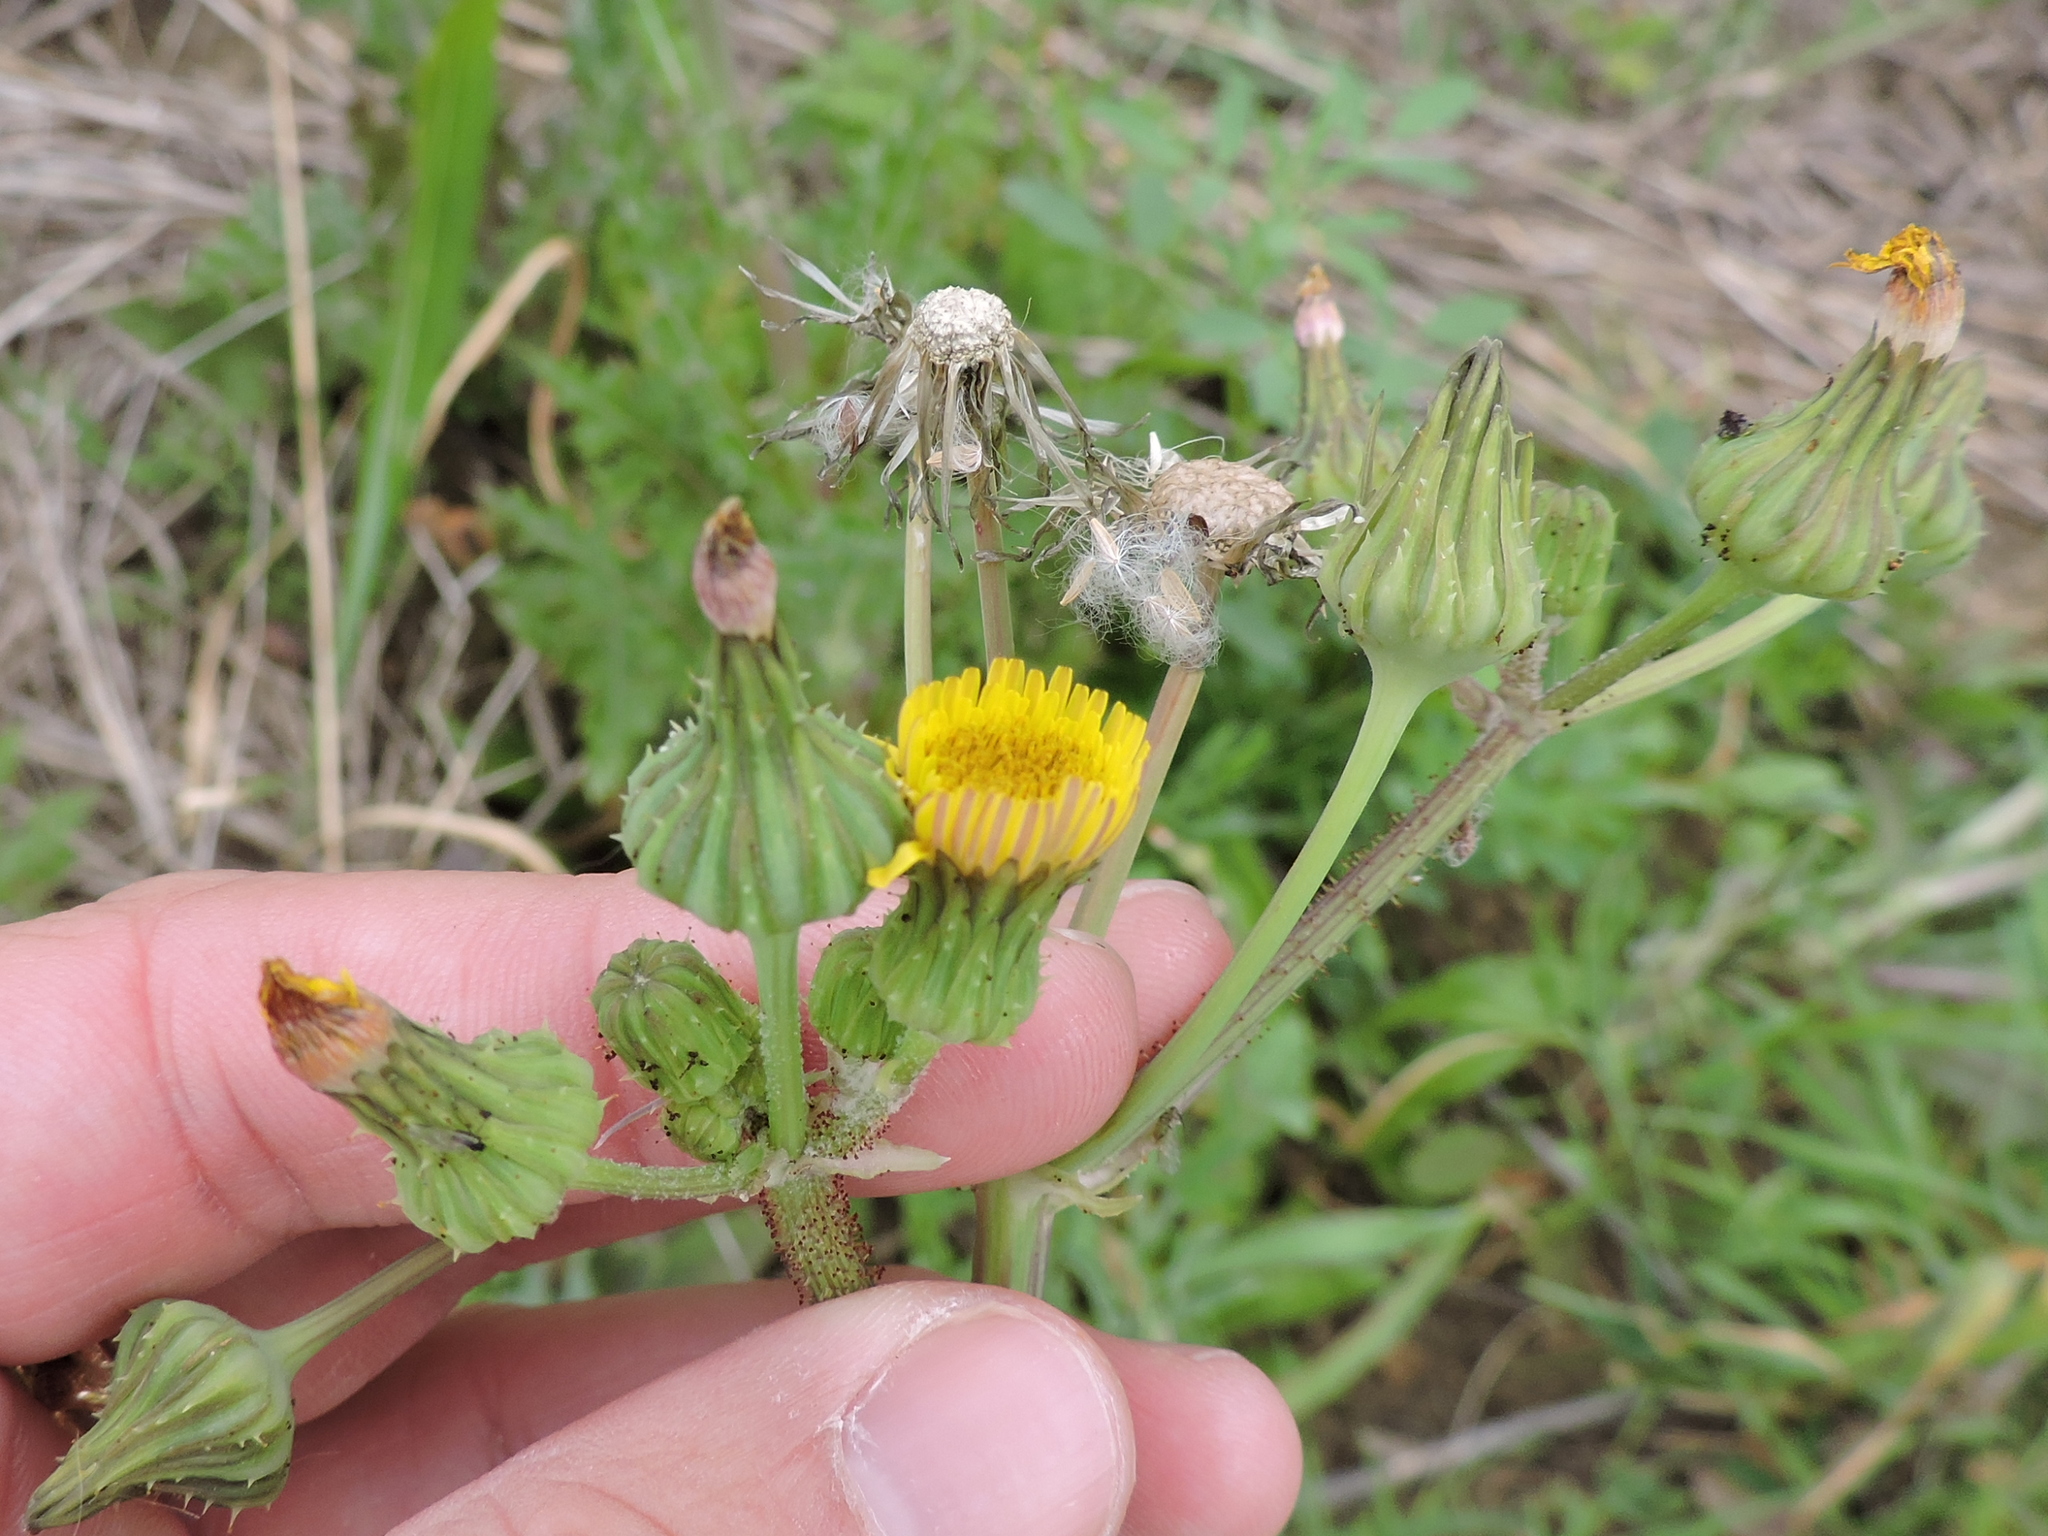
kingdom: Plantae
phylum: Tracheophyta
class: Magnoliopsida
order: Asterales
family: Asteraceae
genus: Sonchus
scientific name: Sonchus asper
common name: Prickly sow-thistle
